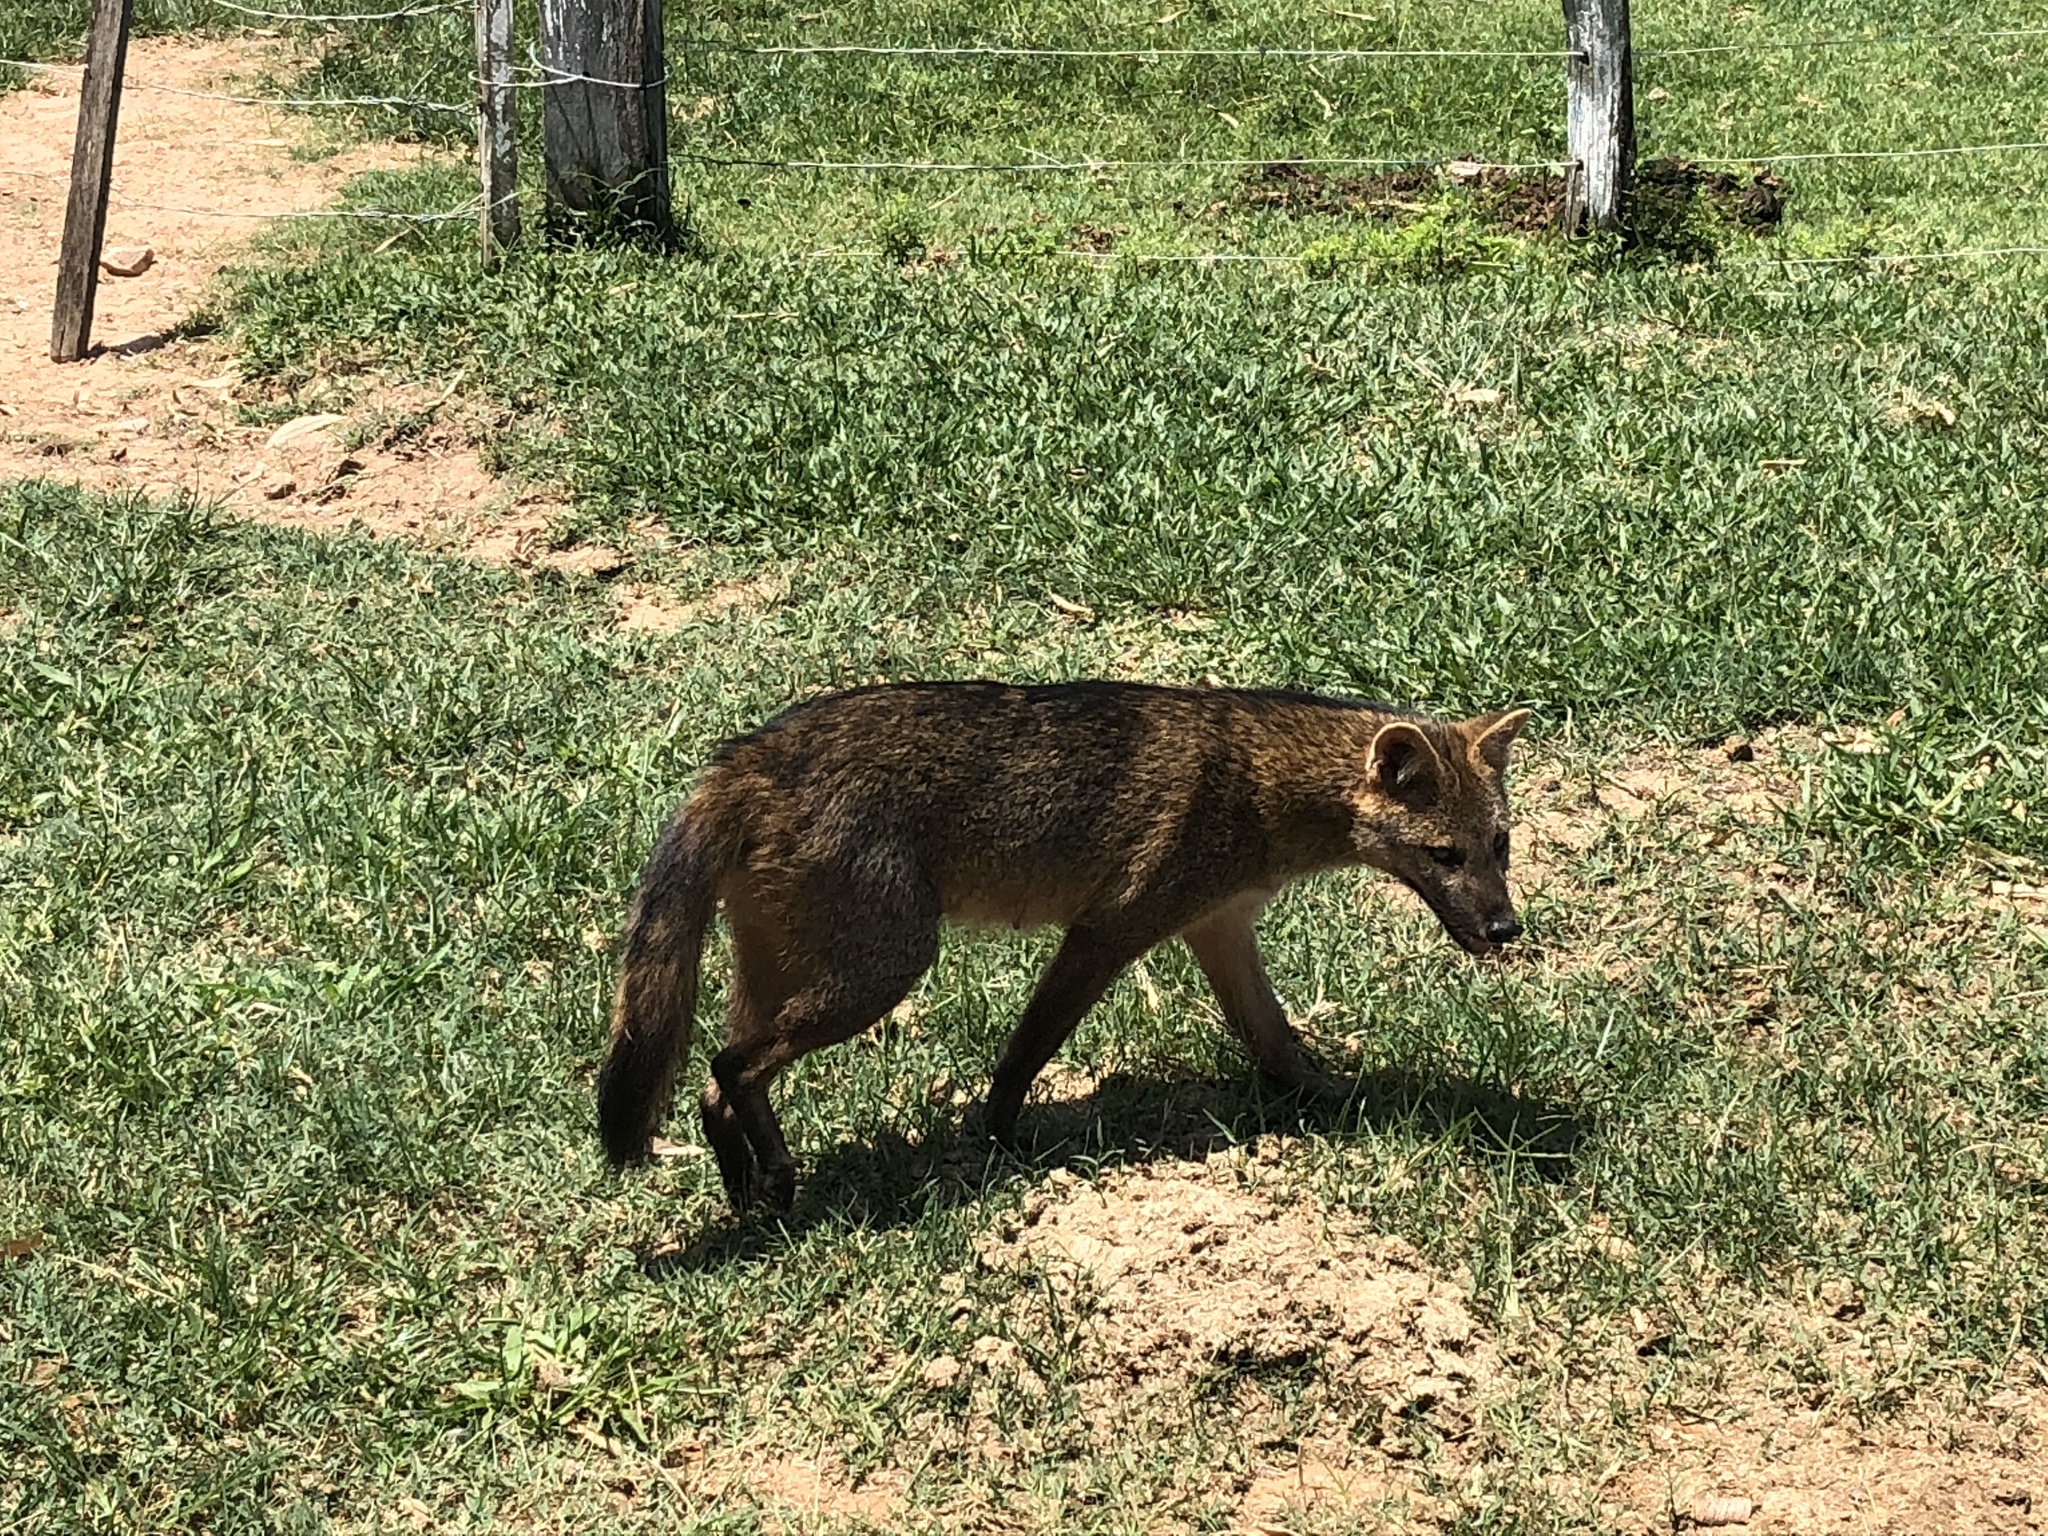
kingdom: Animalia
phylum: Chordata
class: Mammalia
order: Carnivora
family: Canidae
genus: Cerdocyon
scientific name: Cerdocyon thous
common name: Crab-eating fox
